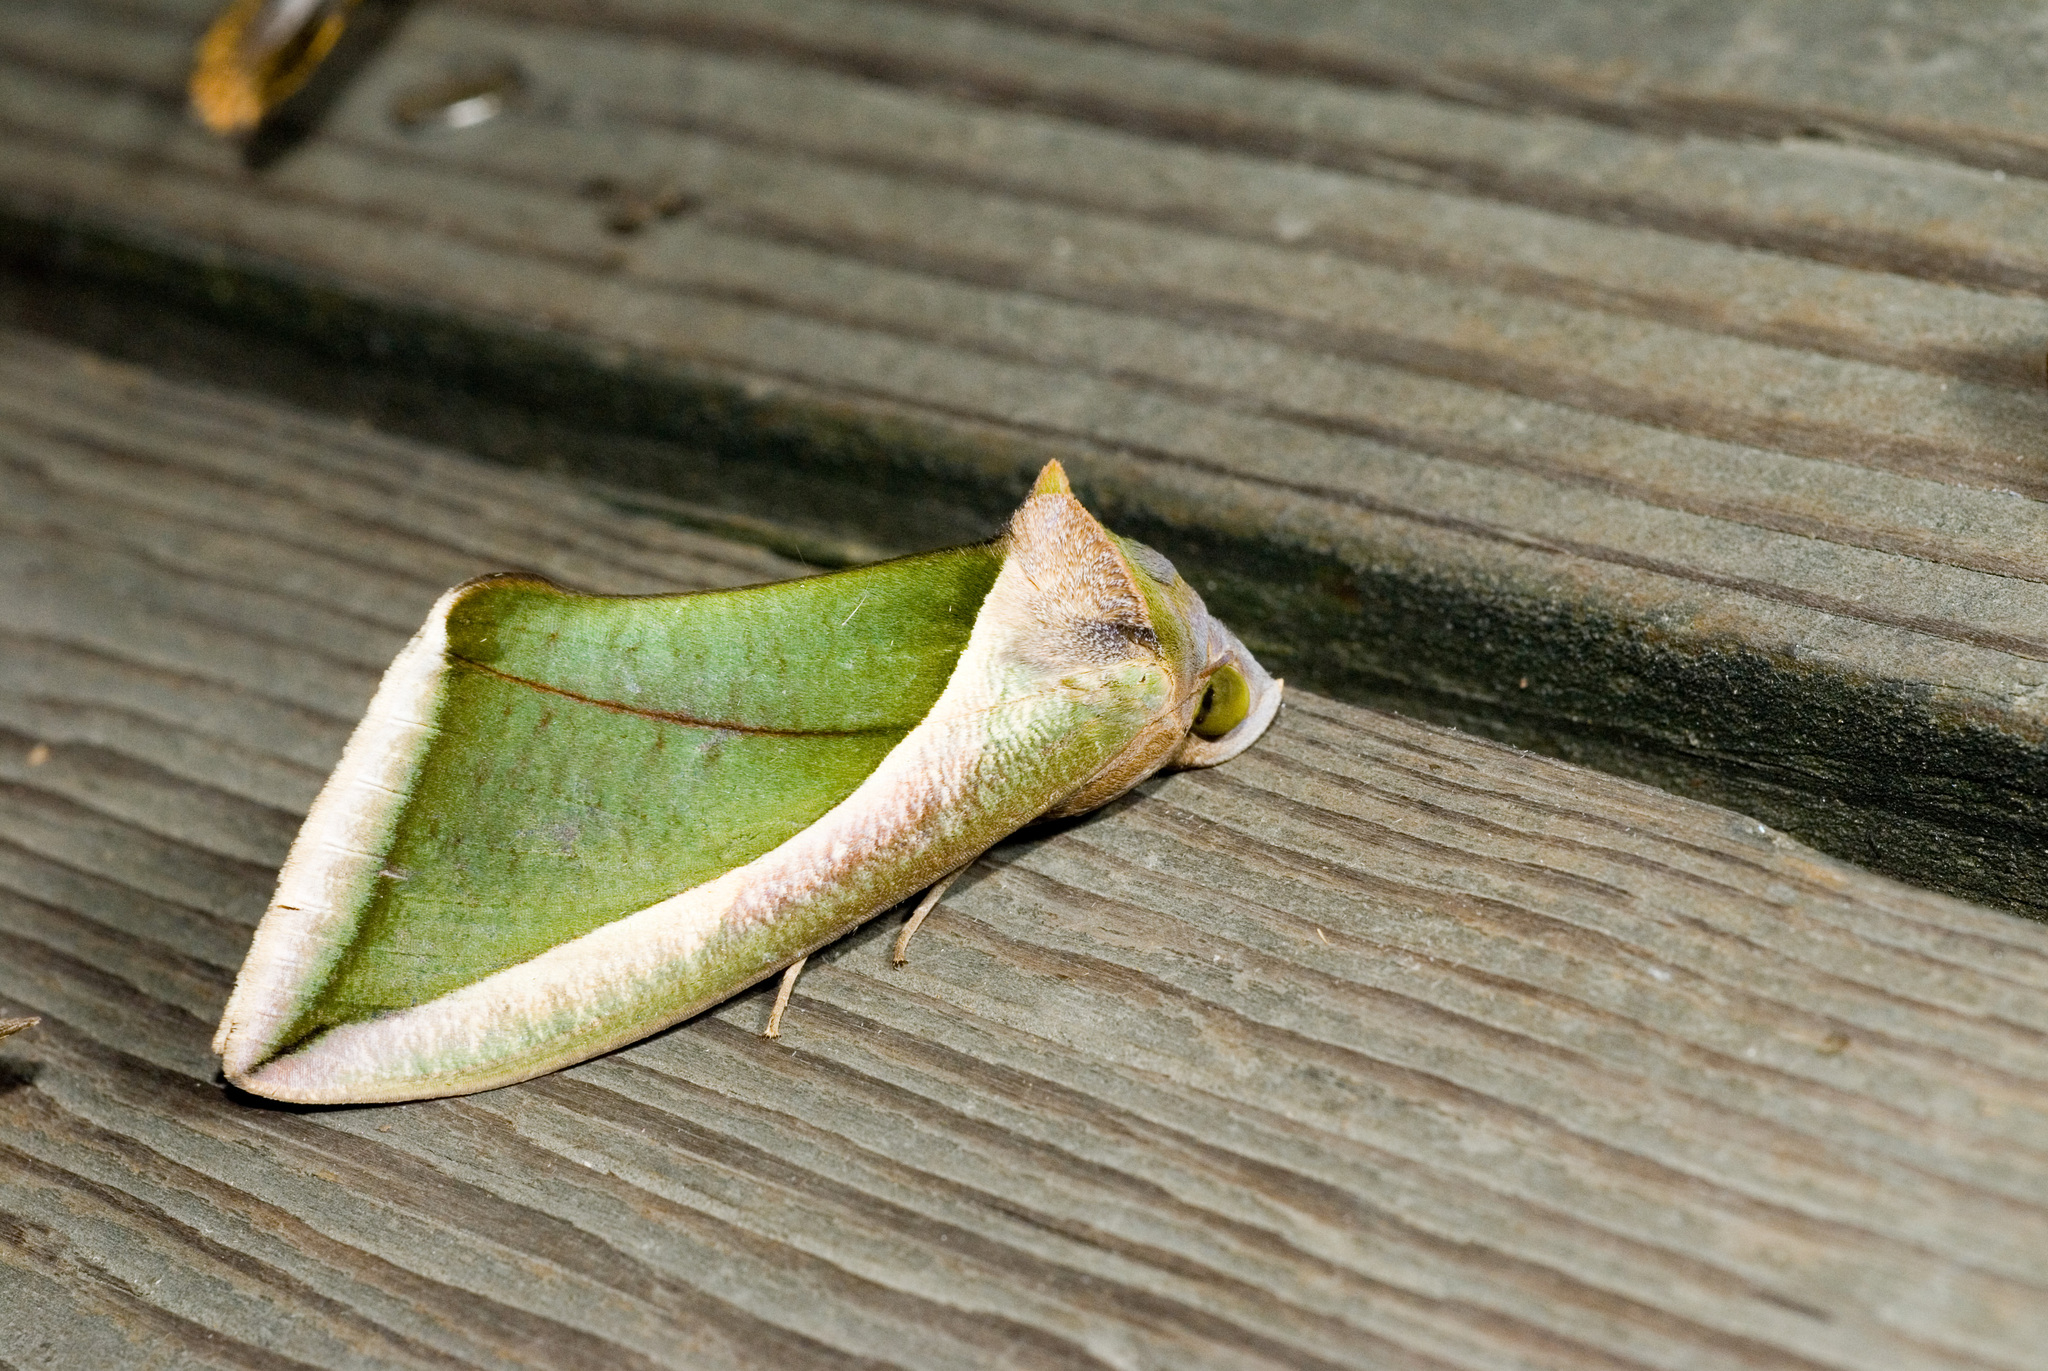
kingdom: Animalia
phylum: Arthropoda
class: Insecta
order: Lepidoptera
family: Erebidae
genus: Eudocima
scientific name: Eudocima salaminia
